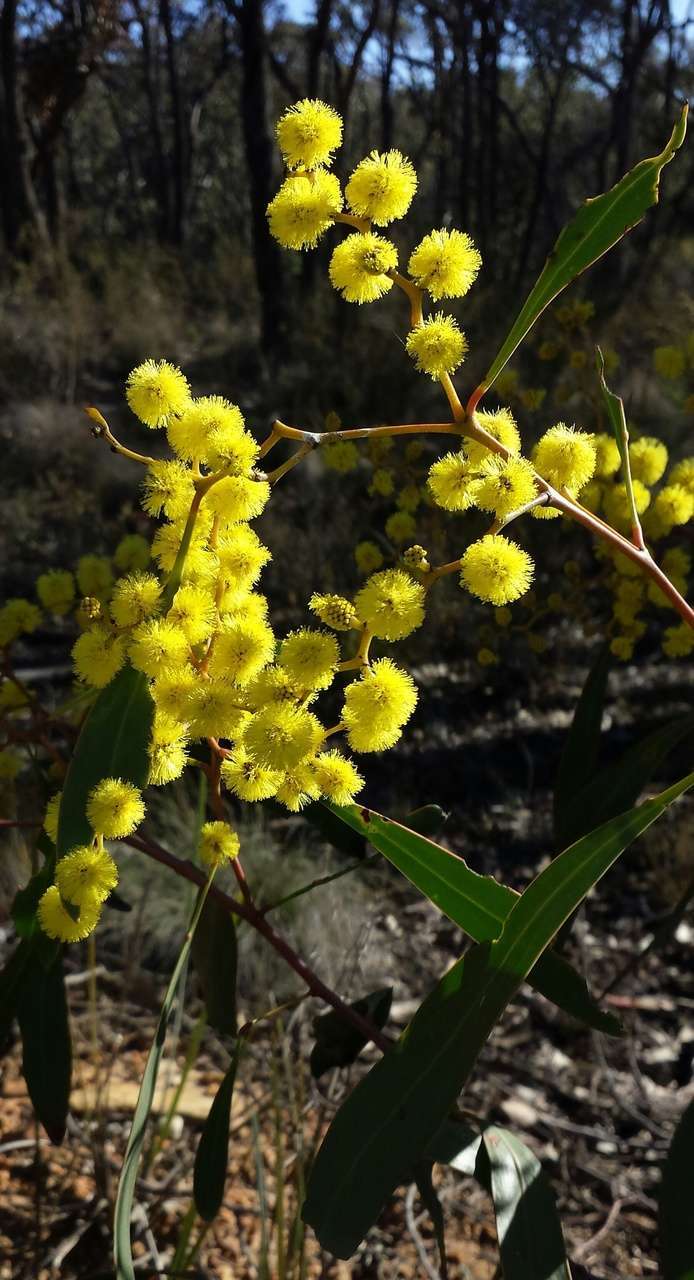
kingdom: Plantae
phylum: Tracheophyta
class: Magnoliopsida
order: Fabales
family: Fabaceae
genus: Acacia
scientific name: Acacia pycnantha
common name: Golden wattle
